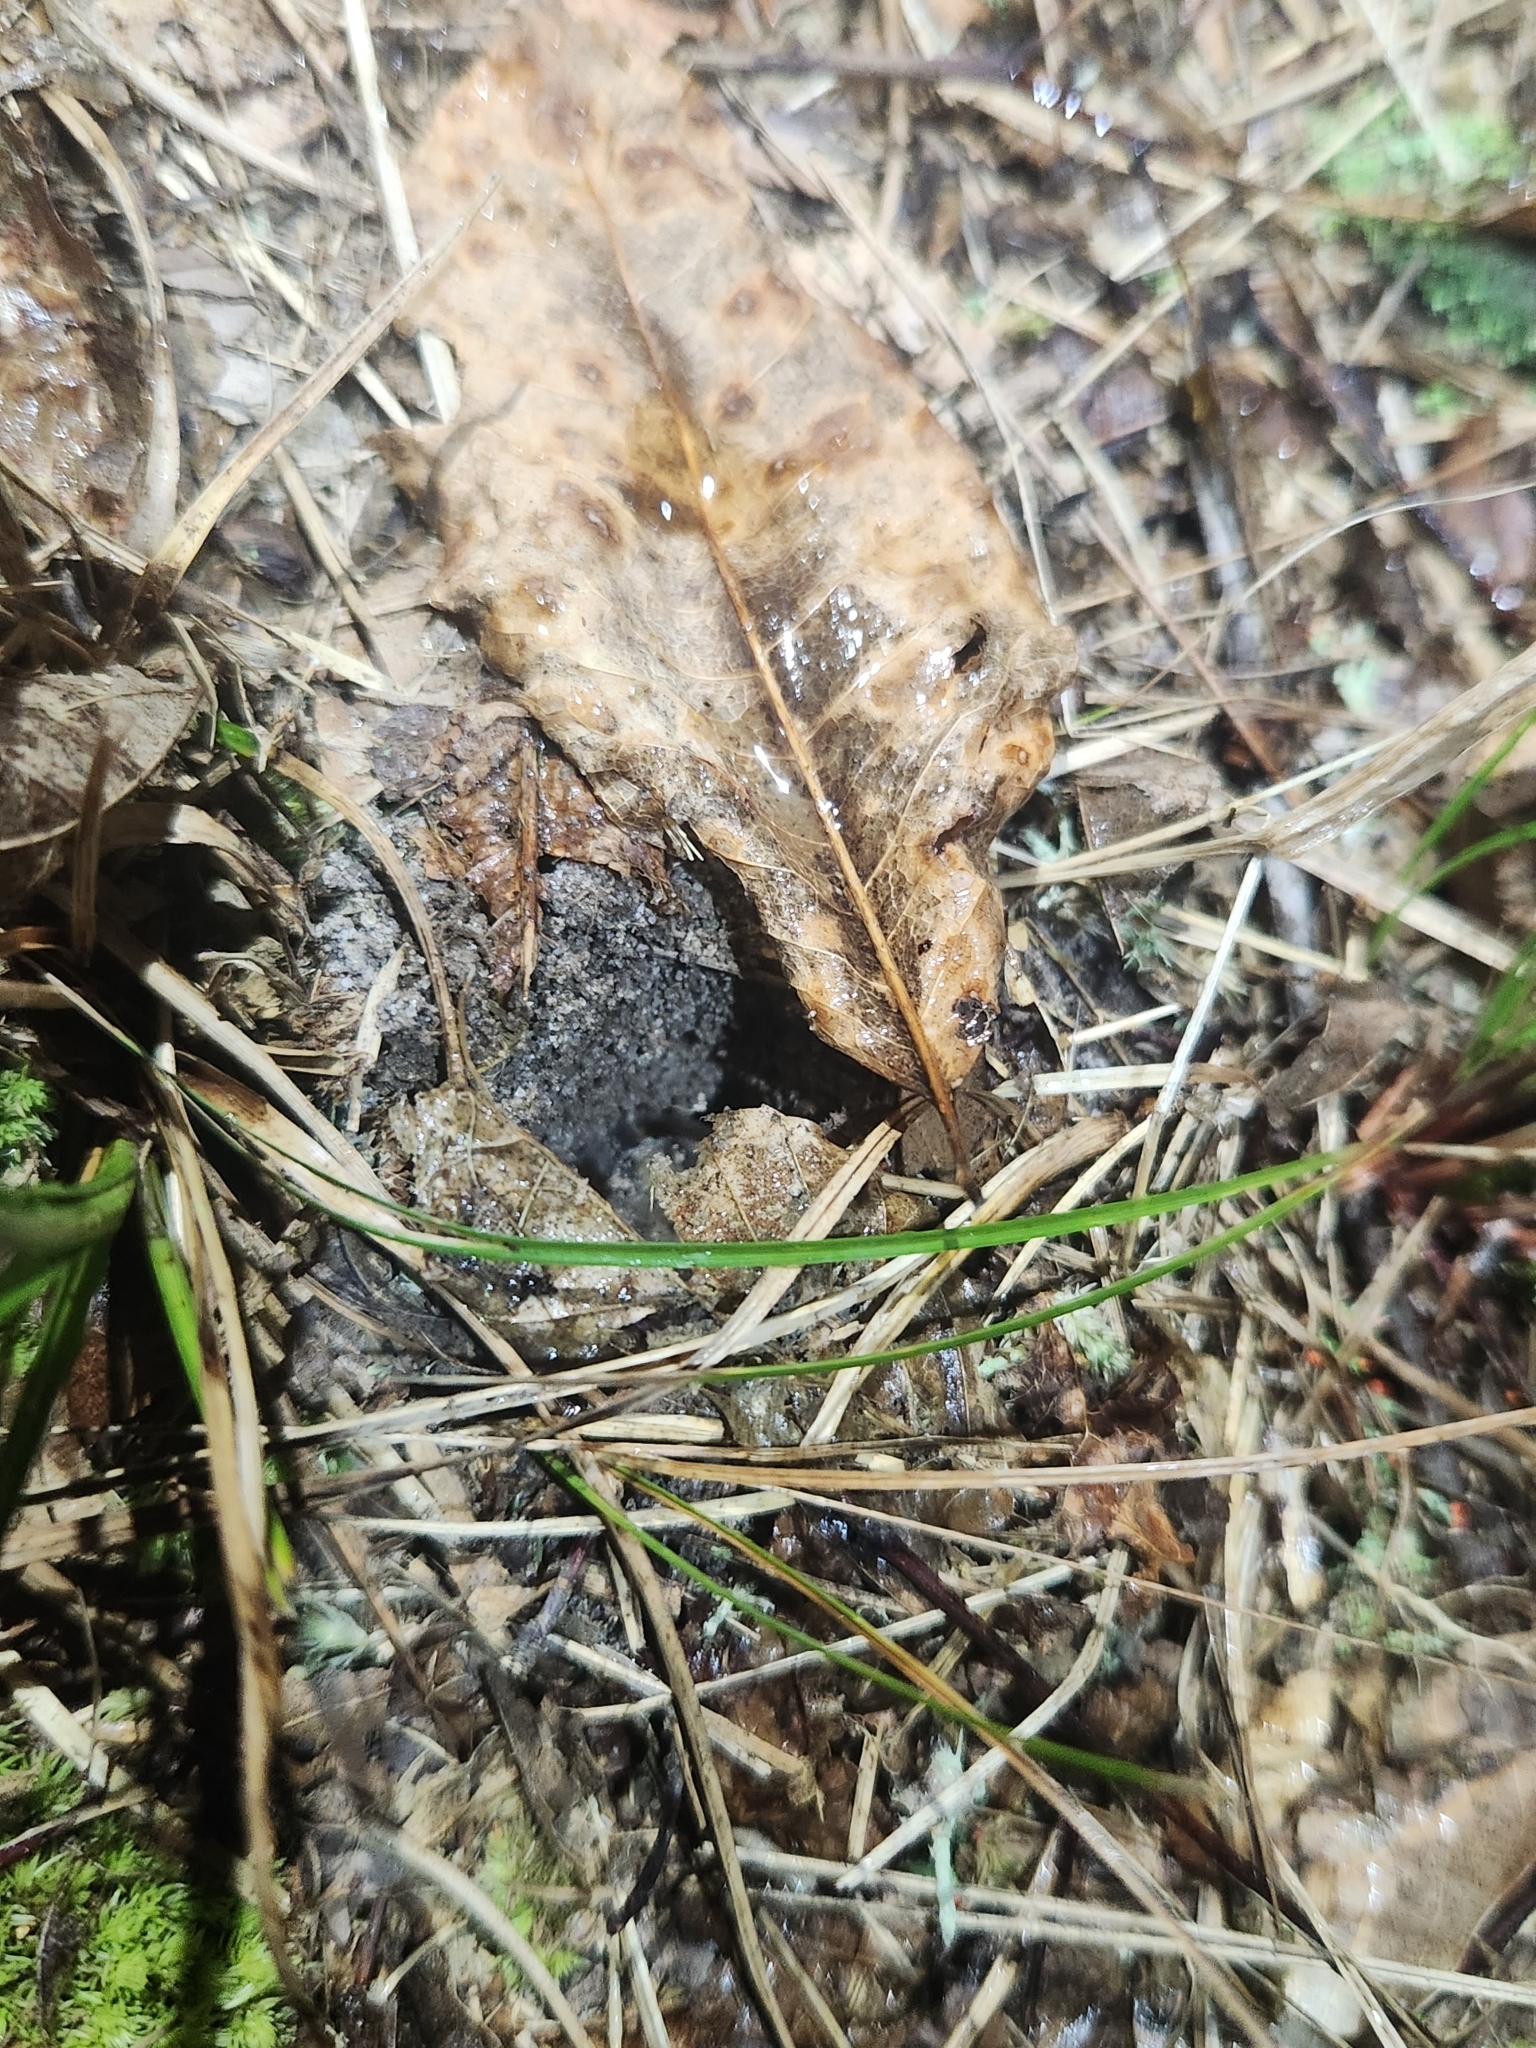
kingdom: Animalia
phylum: Chordata
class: Amphibia
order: Anura
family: Scaphiopodidae
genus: Scaphiopus
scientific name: Scaphiopus holbrookii
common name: Eastern spadefoot toad
